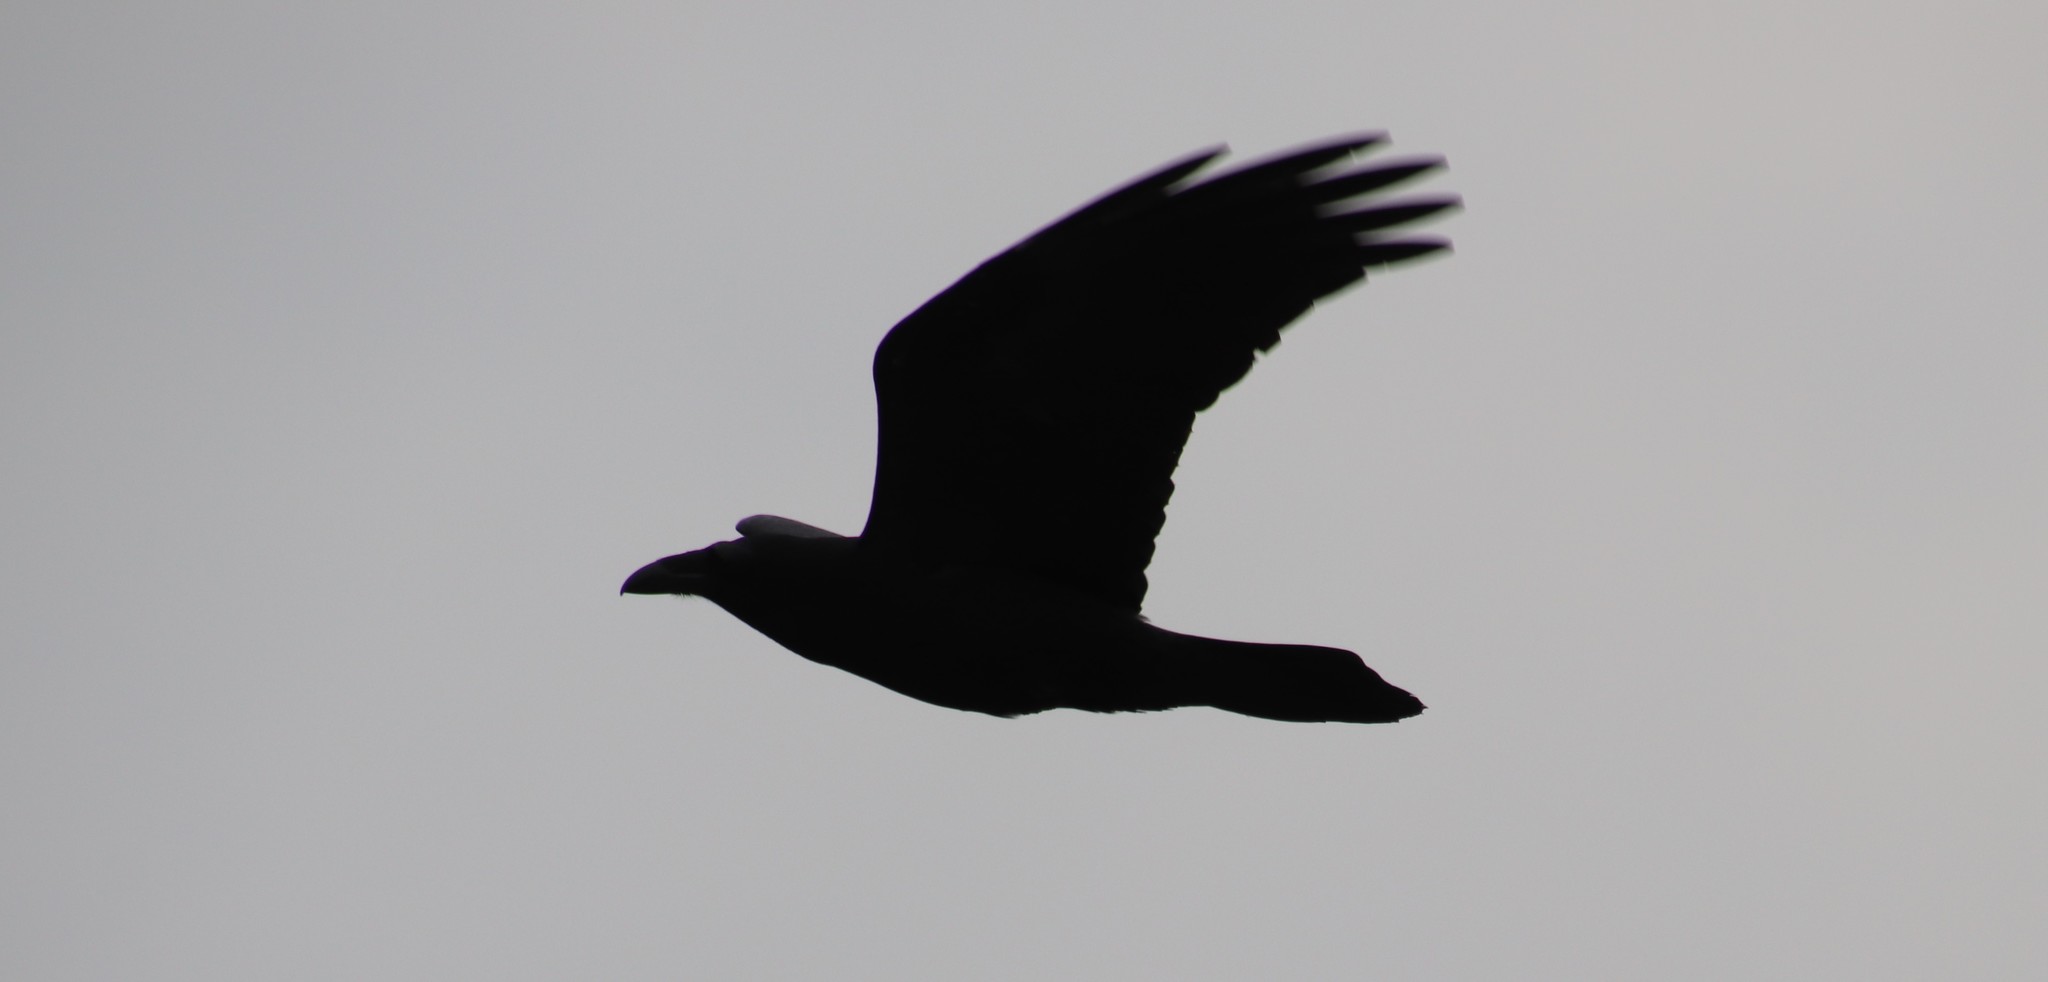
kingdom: Animalia
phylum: Chordata
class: Aves
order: Passeriformes
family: Corvidae
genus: Corvus
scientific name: Corvus corax
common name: Common raven
